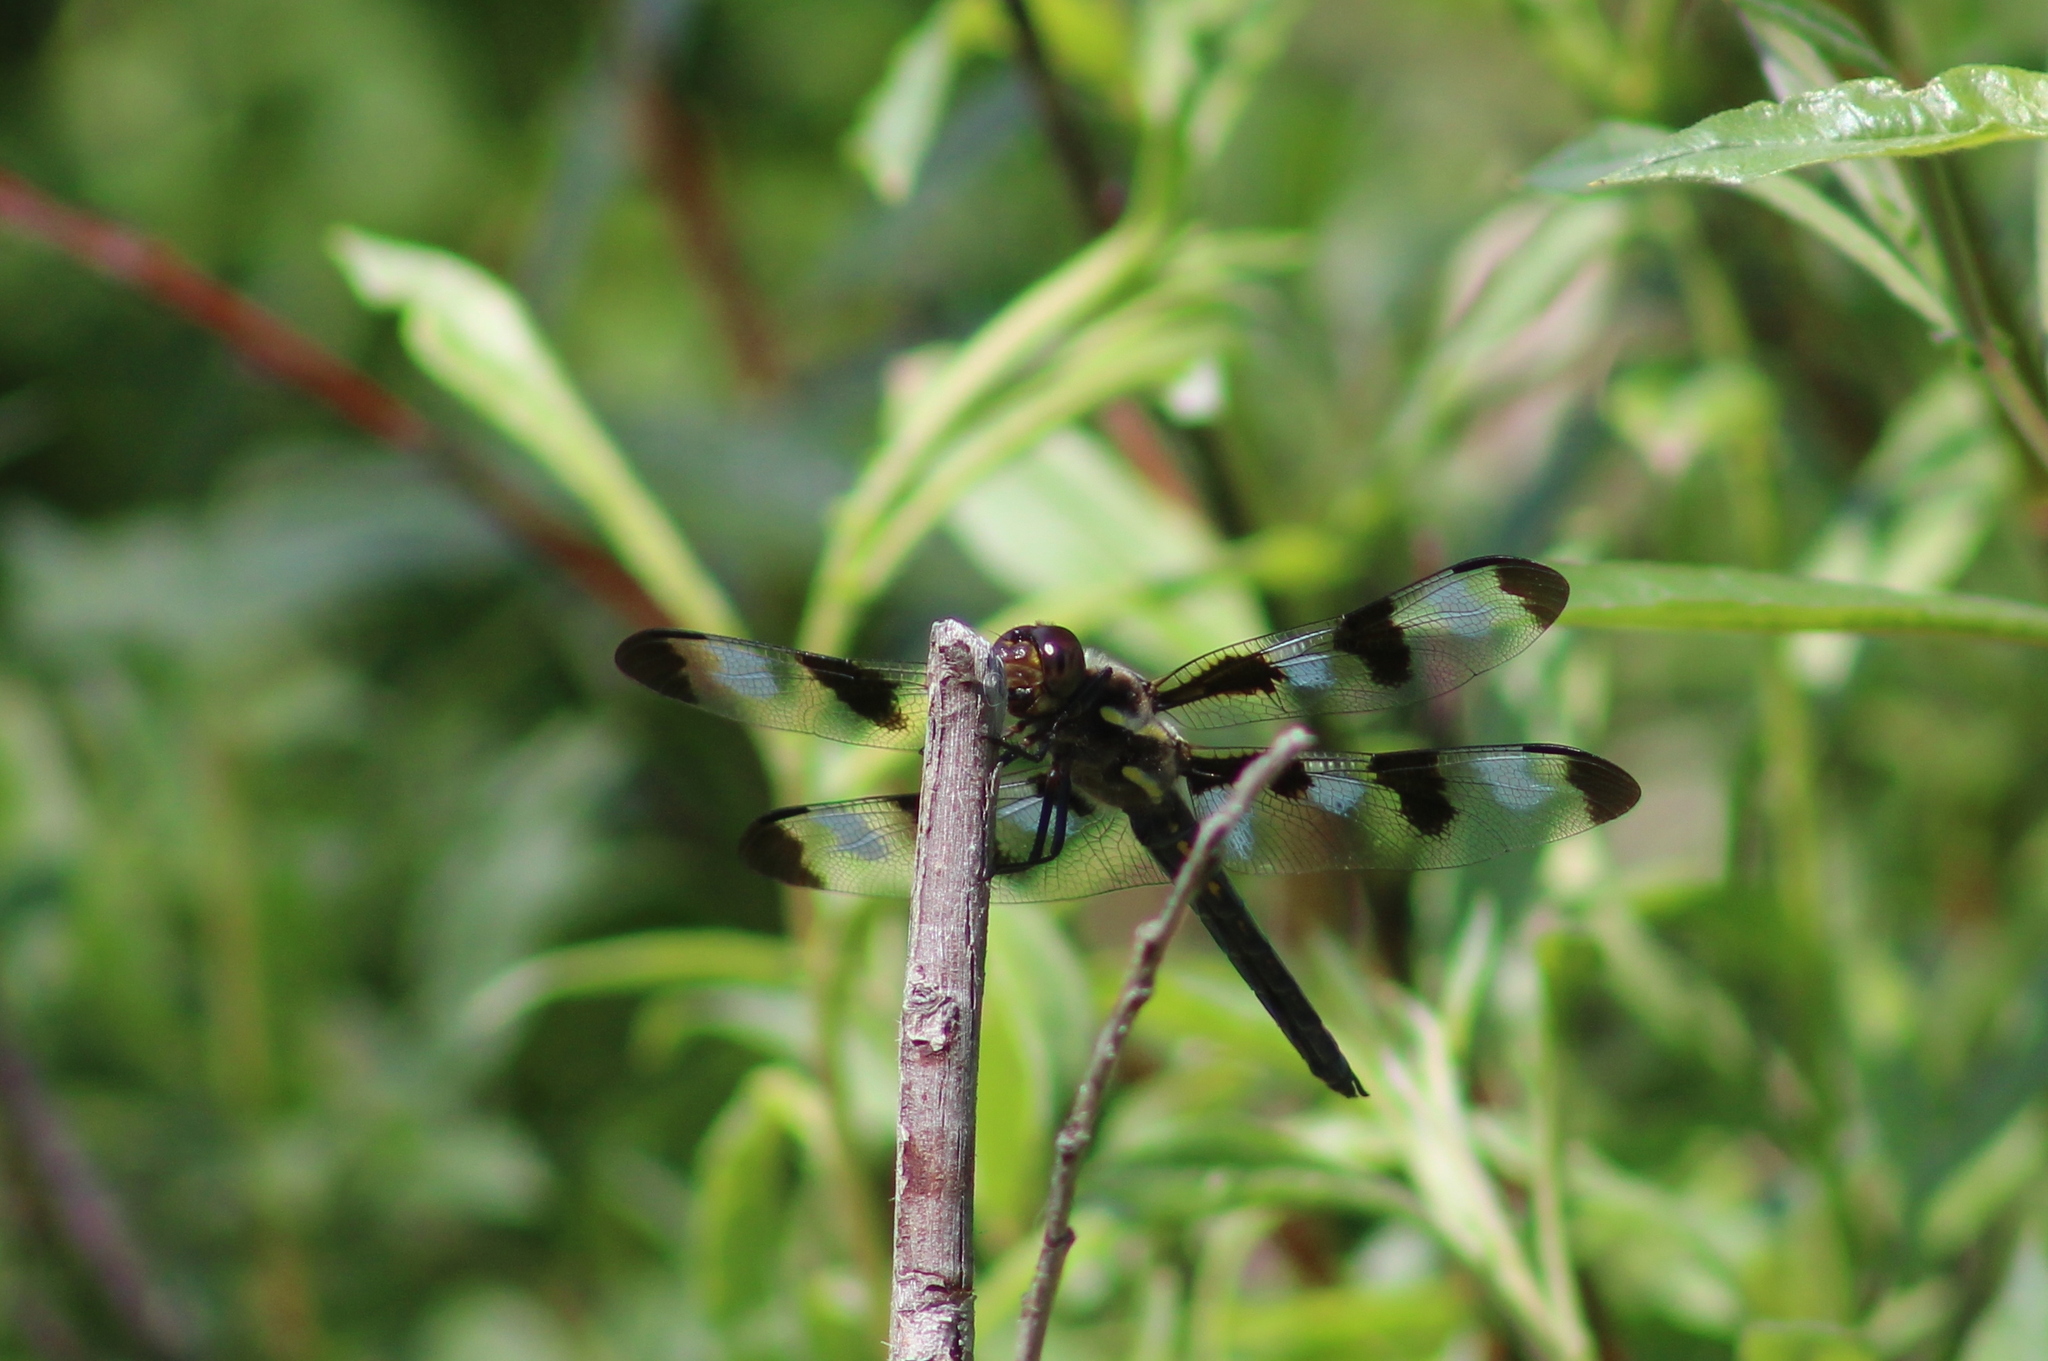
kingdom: Animalia
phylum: Arthropoda
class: Insecta
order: Odonata
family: Libellulidae
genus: Libellula
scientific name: Libellula pulchella
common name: Twelve-spotted skimmer
